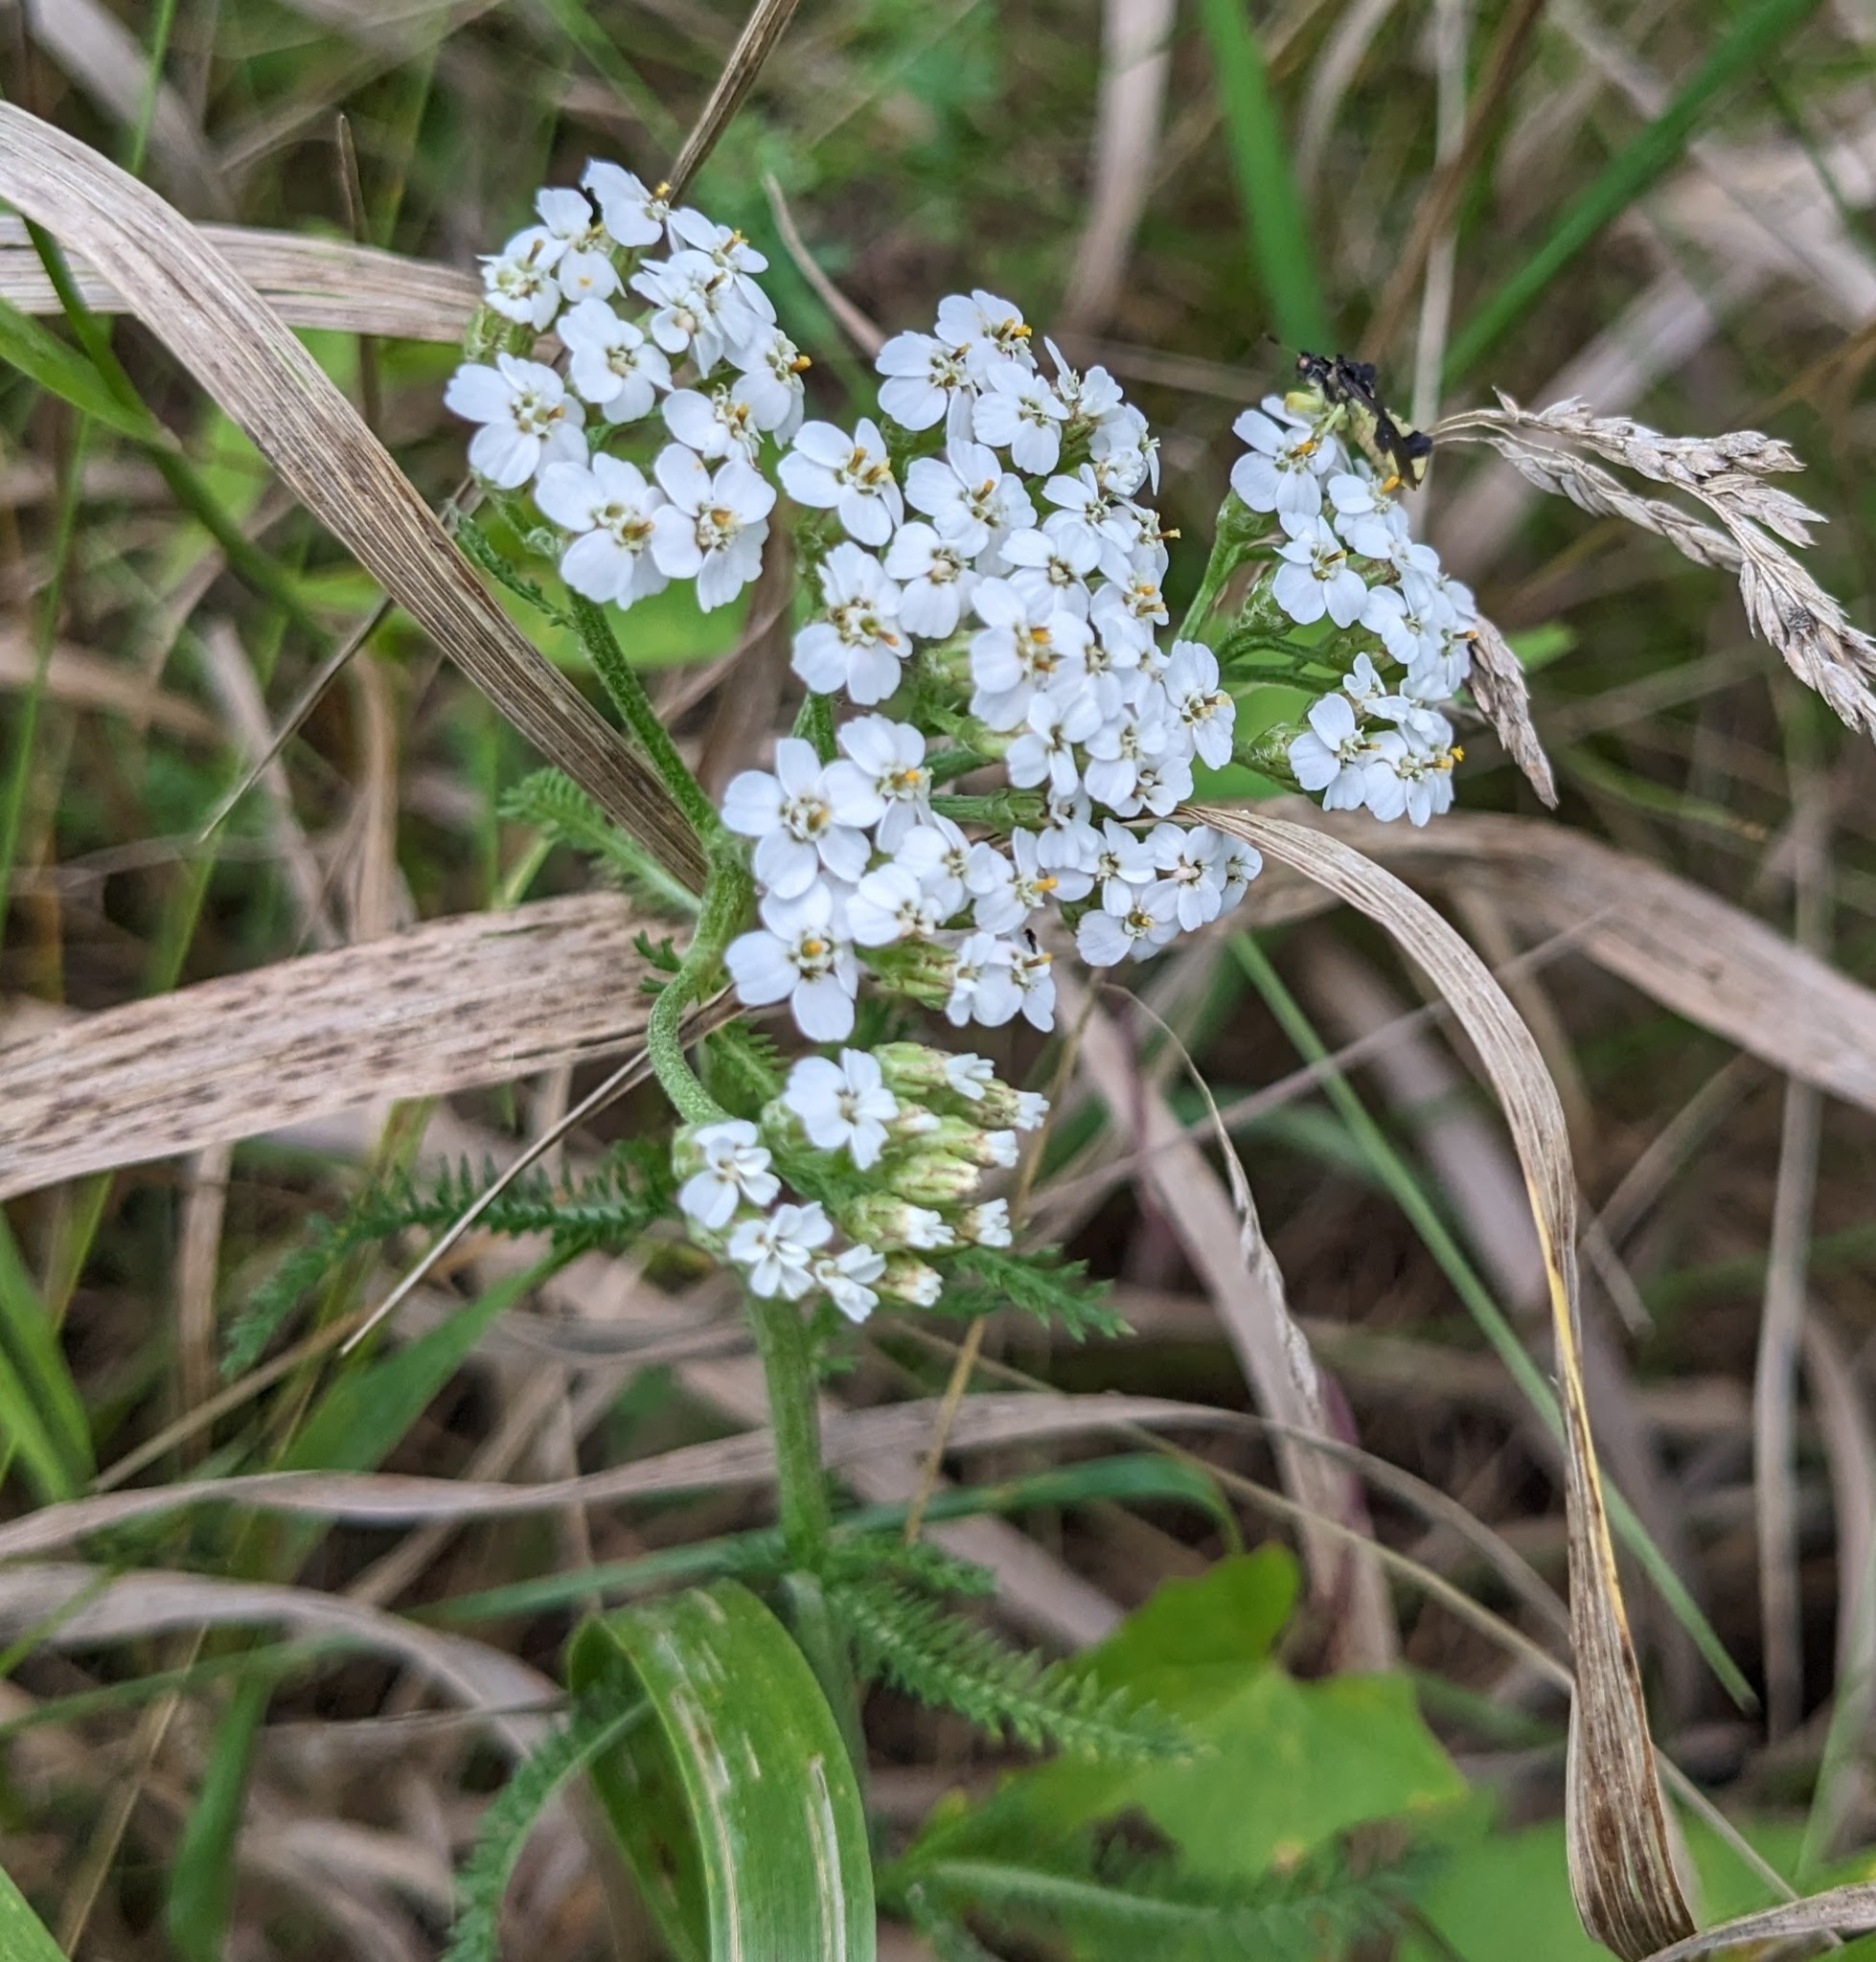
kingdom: Plantae
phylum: Tracheophyta
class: Magnoliopsida
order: Asterales
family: Asteraceae
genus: Achillea
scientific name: Achillea millefolium
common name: Yarrow
